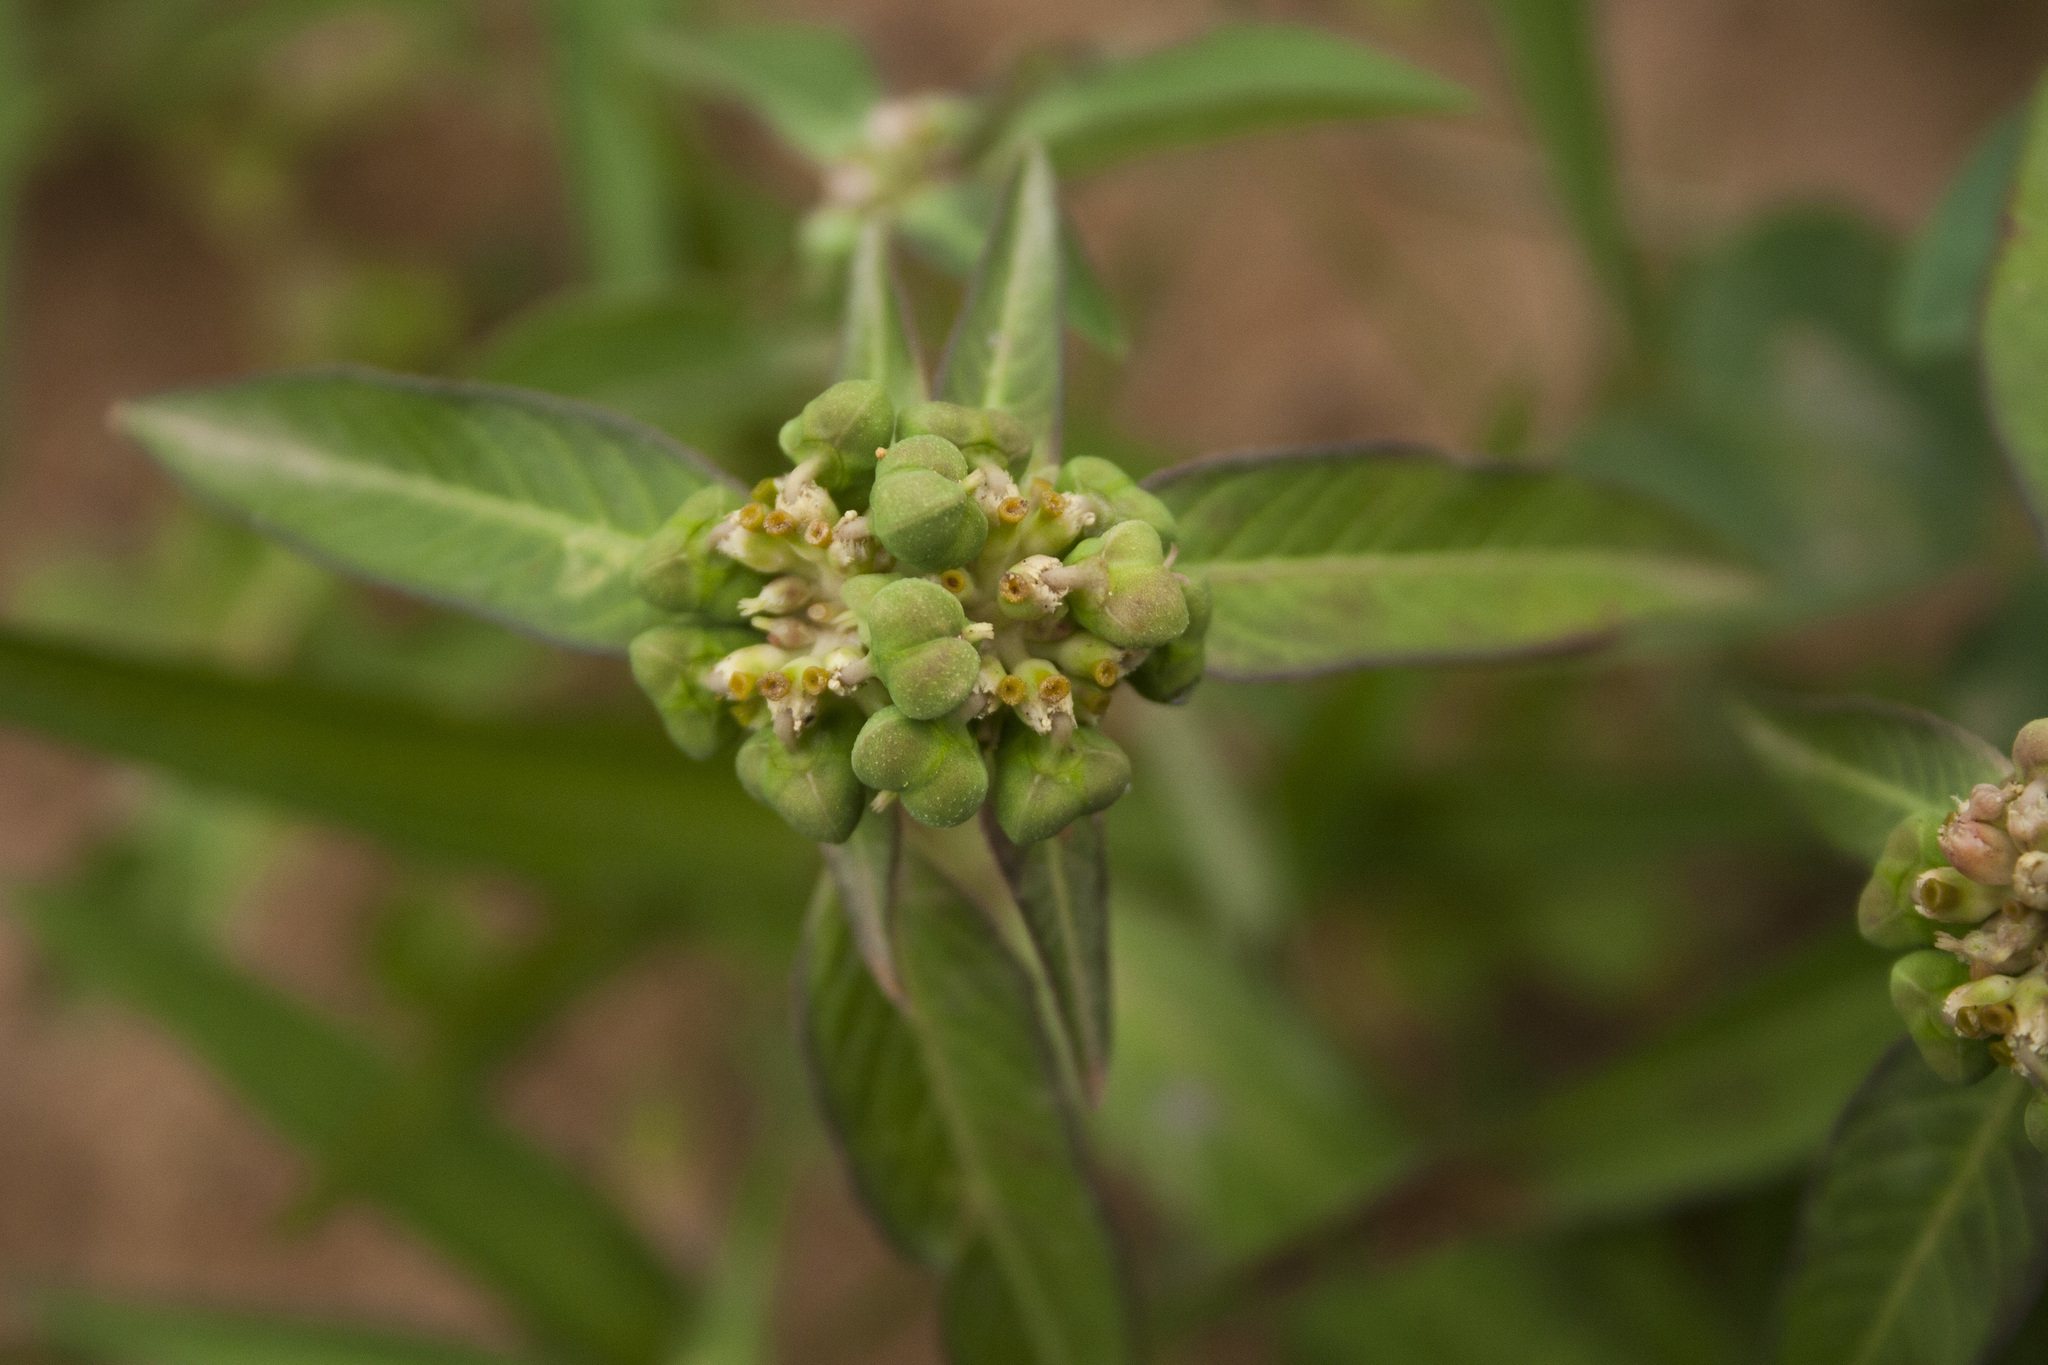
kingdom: Plantae
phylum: Tracheophyta
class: Magnoliopsida
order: Malpighiales
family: Euphorbiaceae
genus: Euphorbia
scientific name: Euphorbia heterophylla
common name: Mexican fireplant
